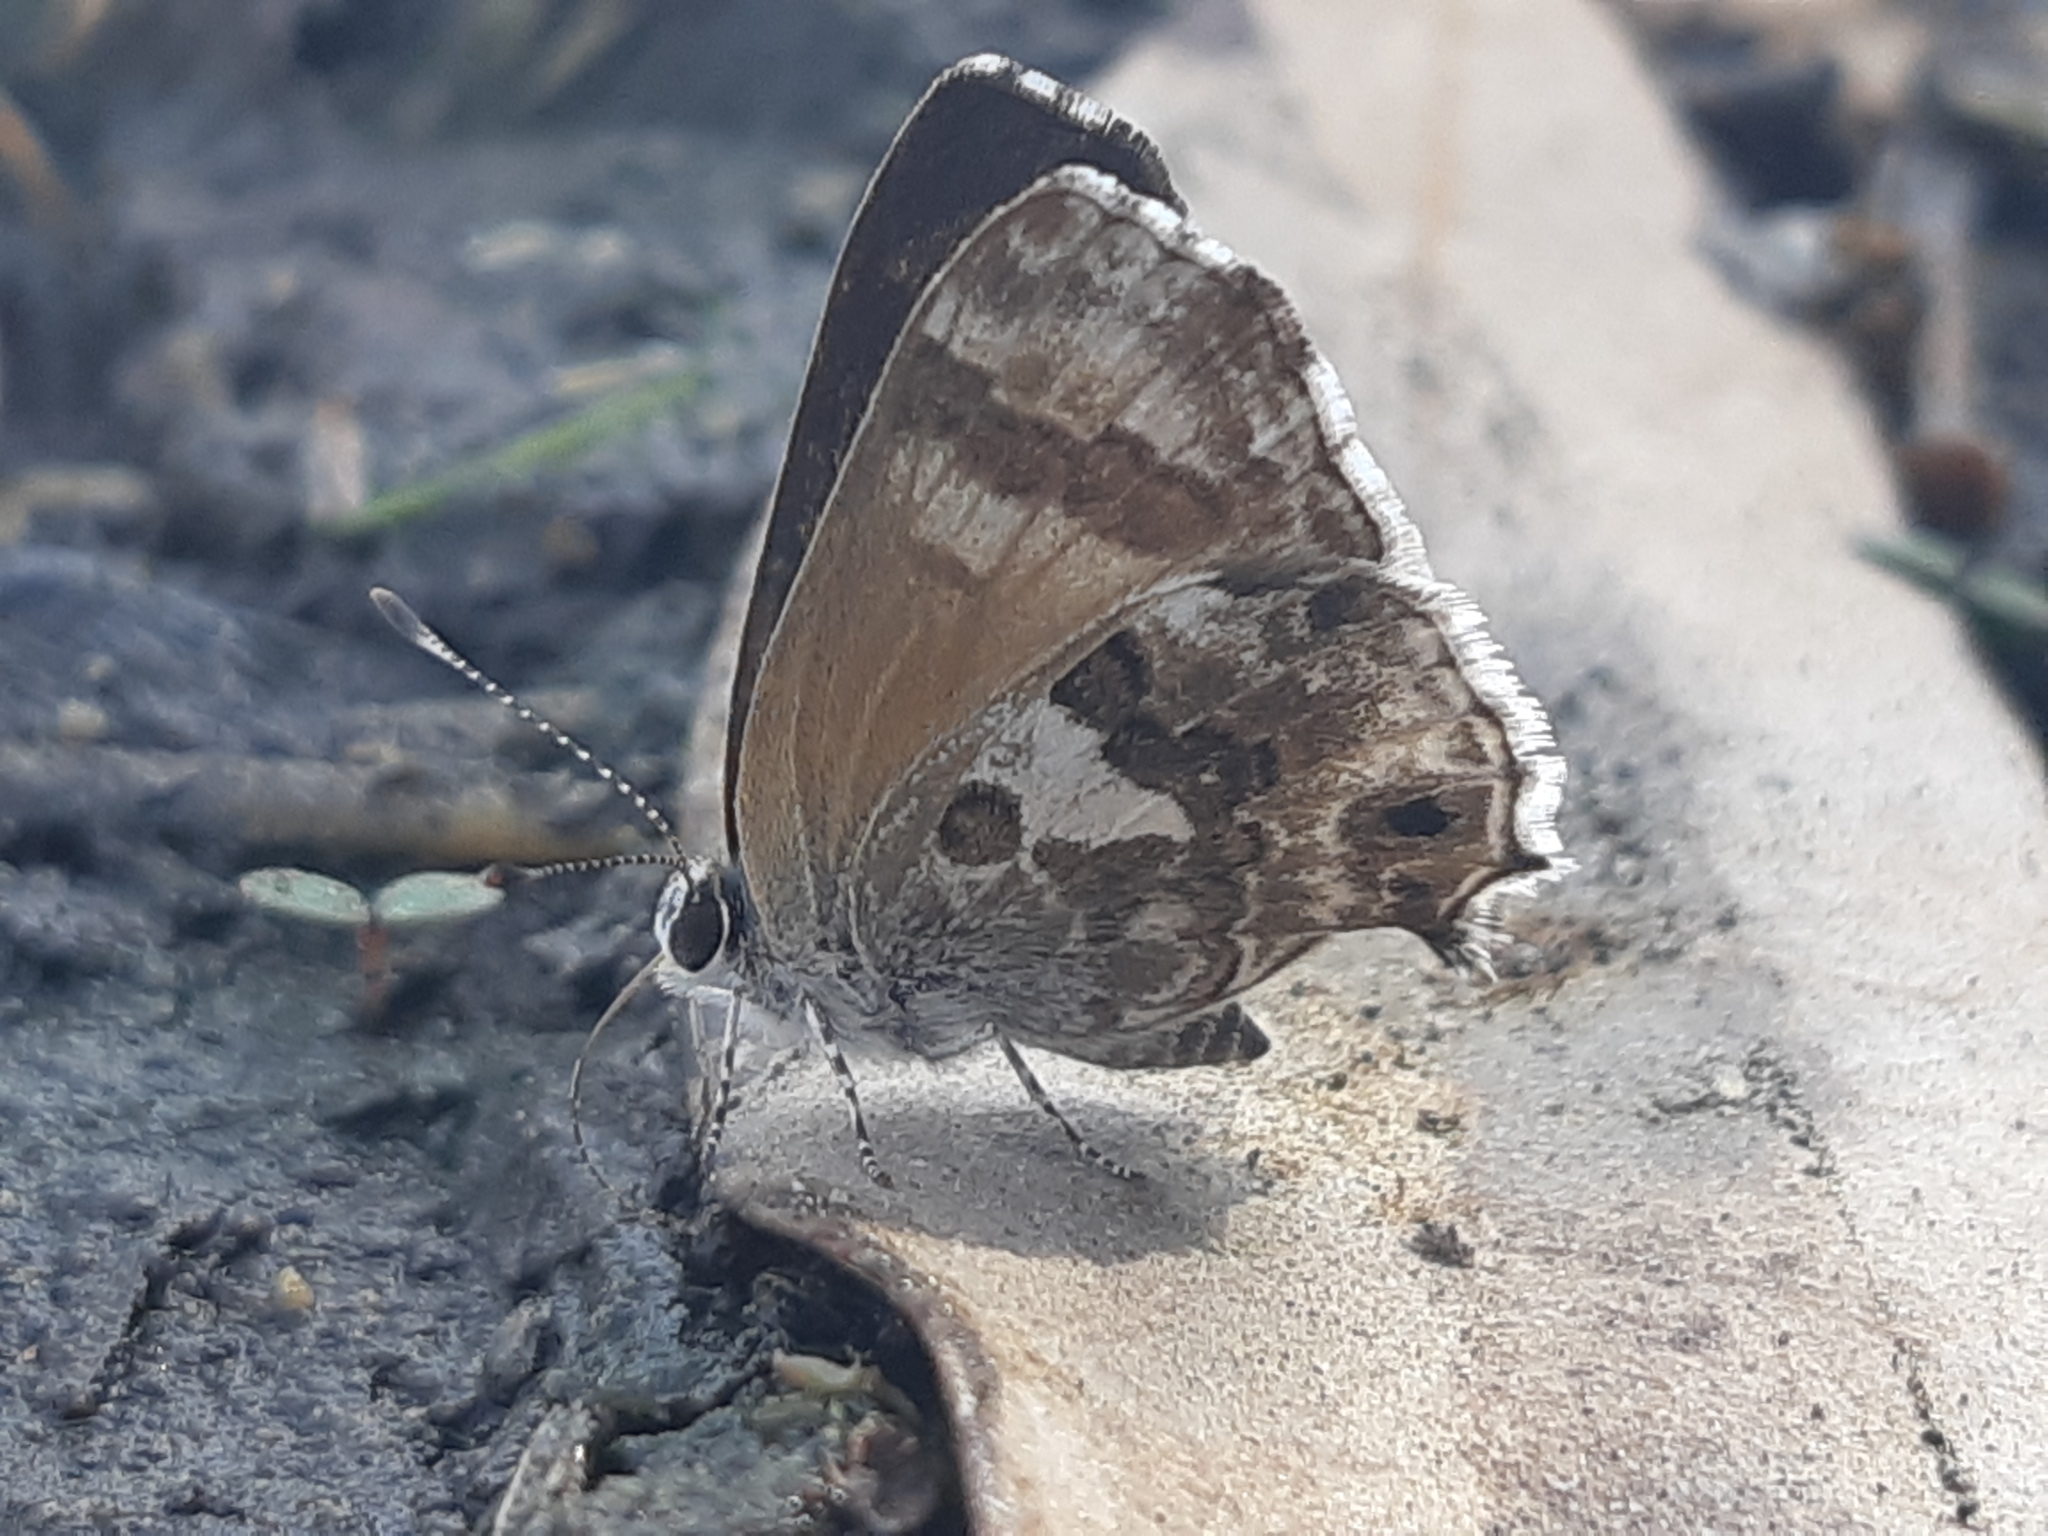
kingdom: Animalia
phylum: Arthropoda
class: Insecta
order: Lepidoptera
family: Lycaenidae
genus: Strymon
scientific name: Strymon
